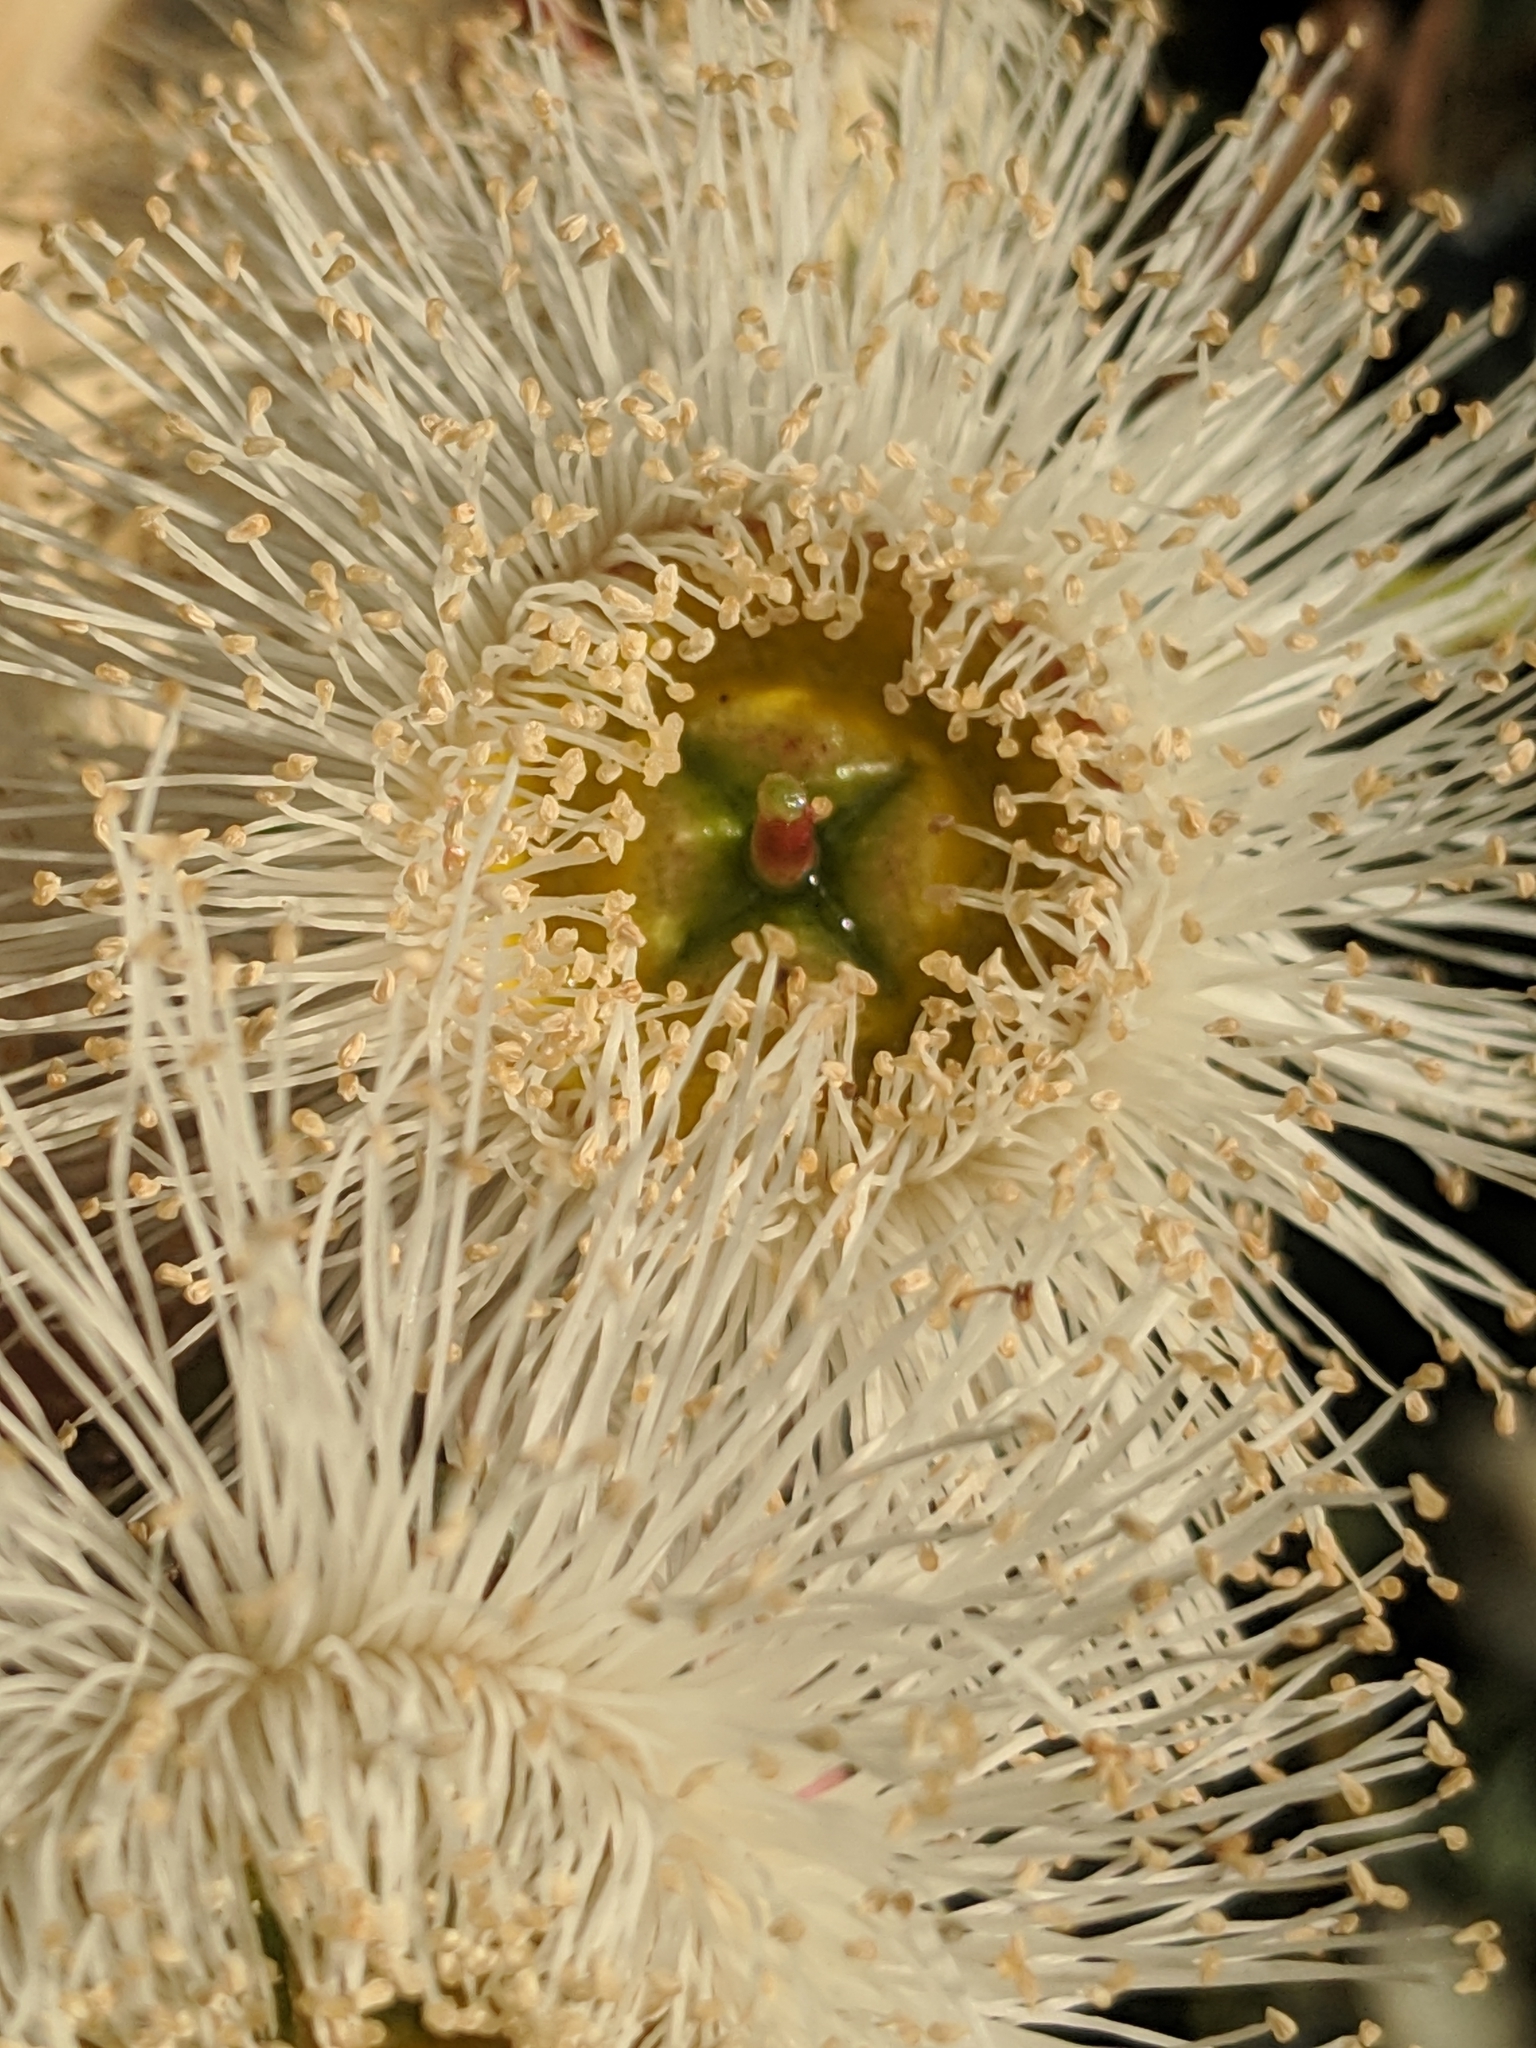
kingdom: Plantae
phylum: Tracheophyta
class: Magnoliopsida
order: Myrtales
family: Myrtaceae
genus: Eucalyptus
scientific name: Eucalyptus globulus
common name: Southern blue-gum
